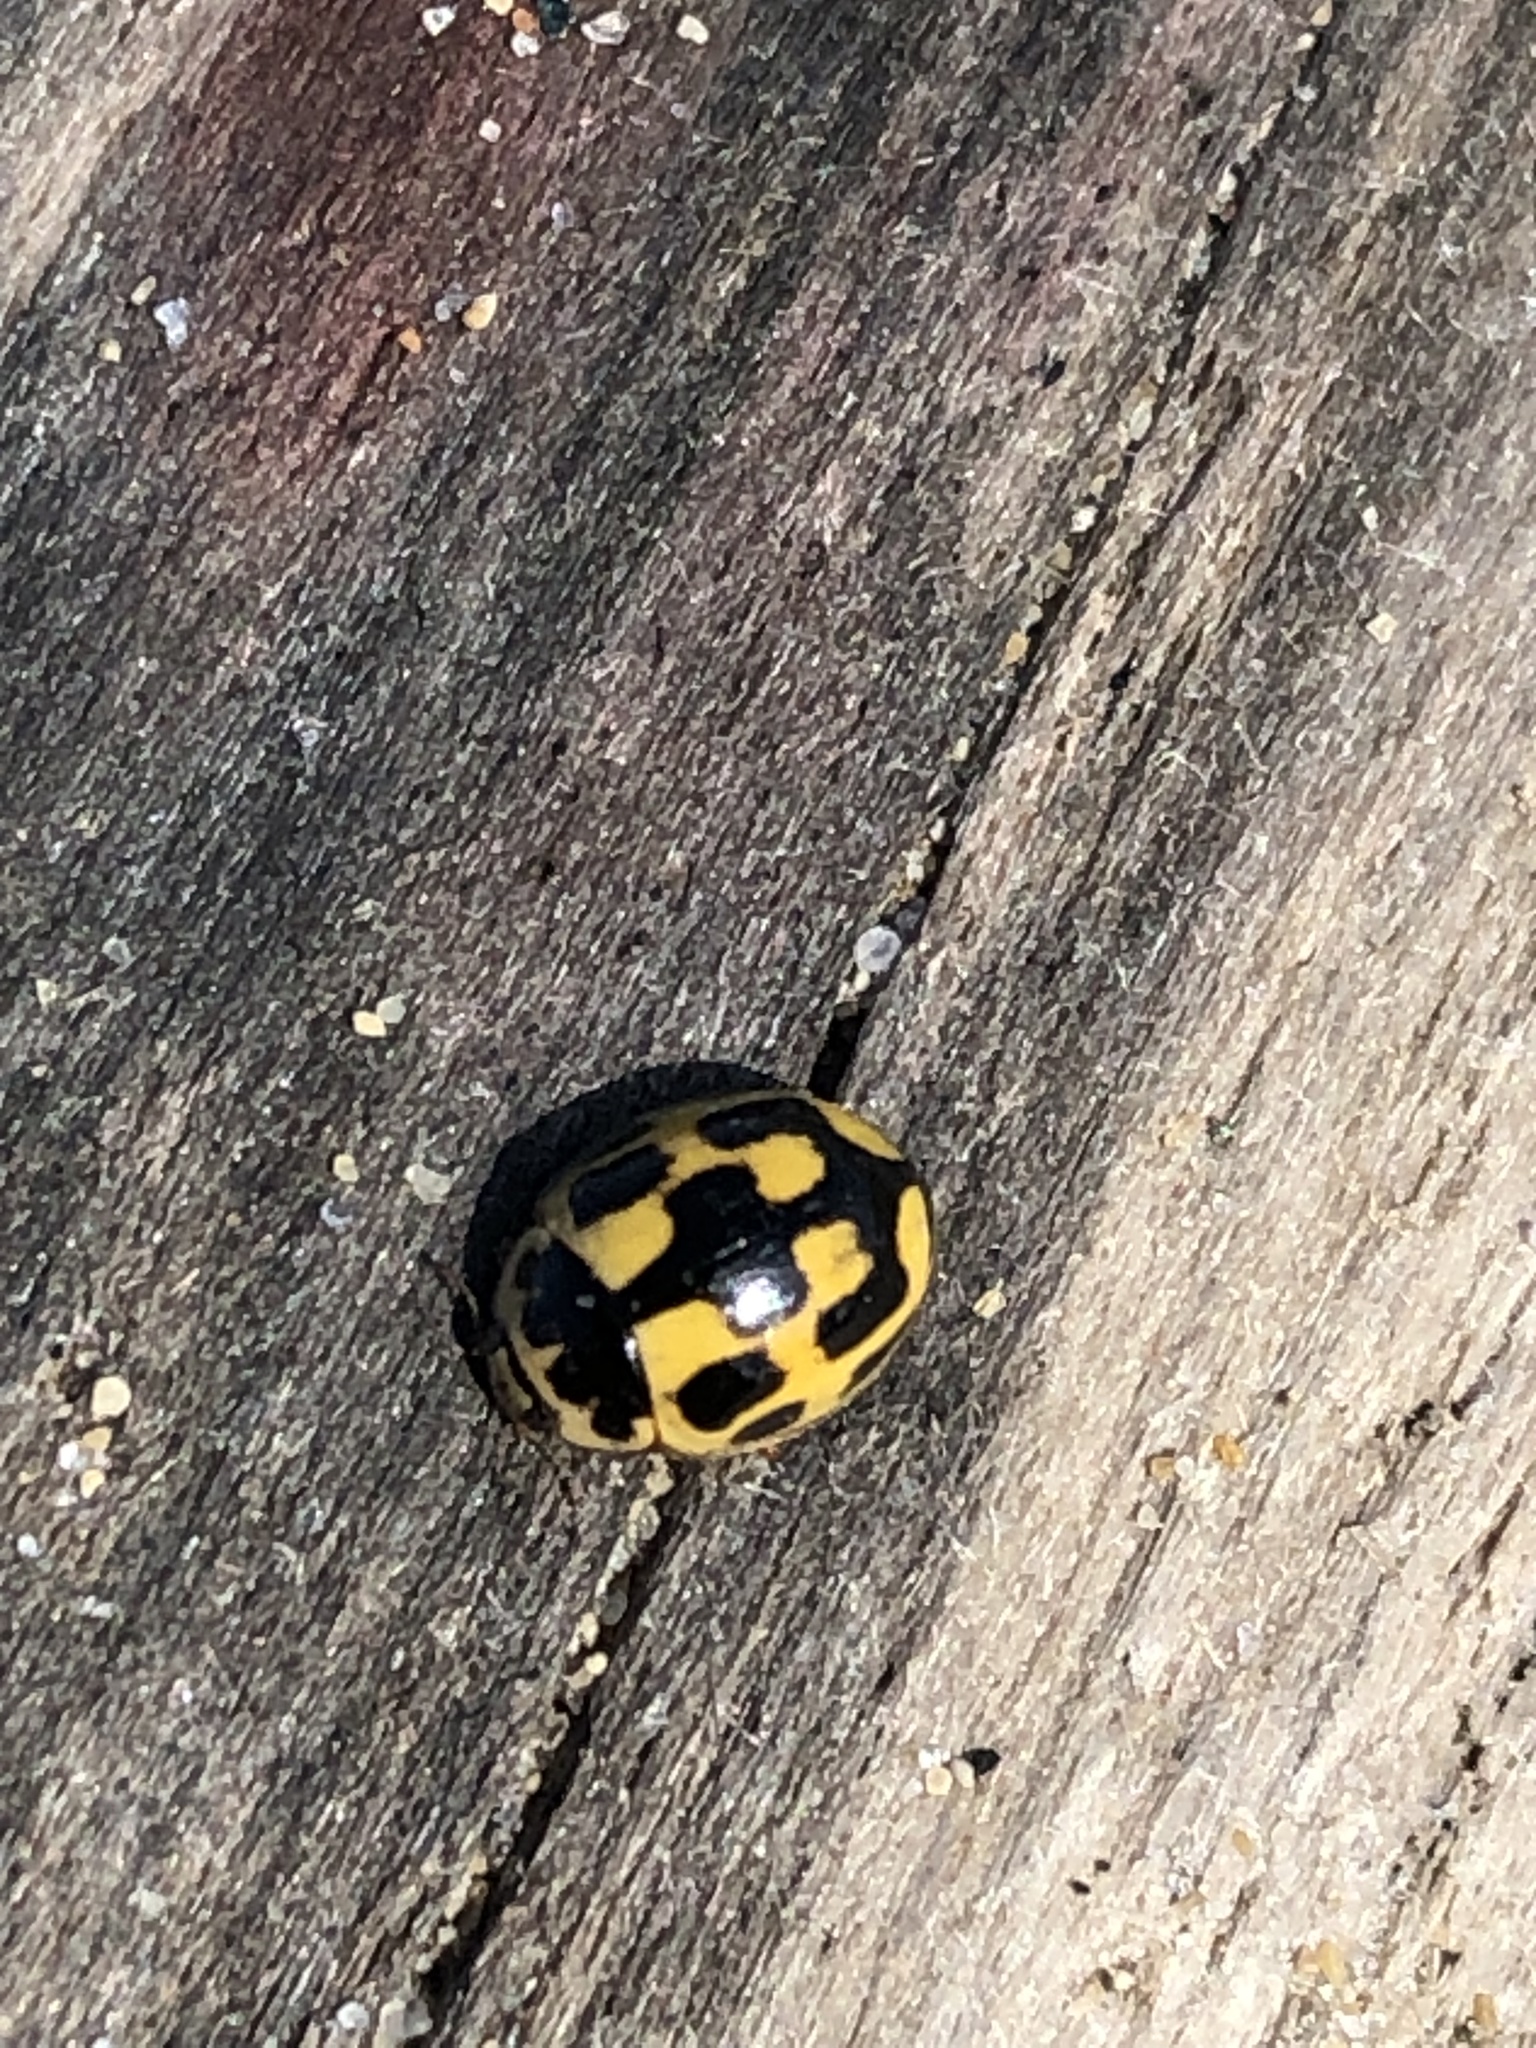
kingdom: Animalia
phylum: Arthropoda
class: Insecta
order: Coleoptera
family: Coccinellidae
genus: Propylaea
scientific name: Propylaea quatuordecimpunctata
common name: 14-spotted ladybird beetle
